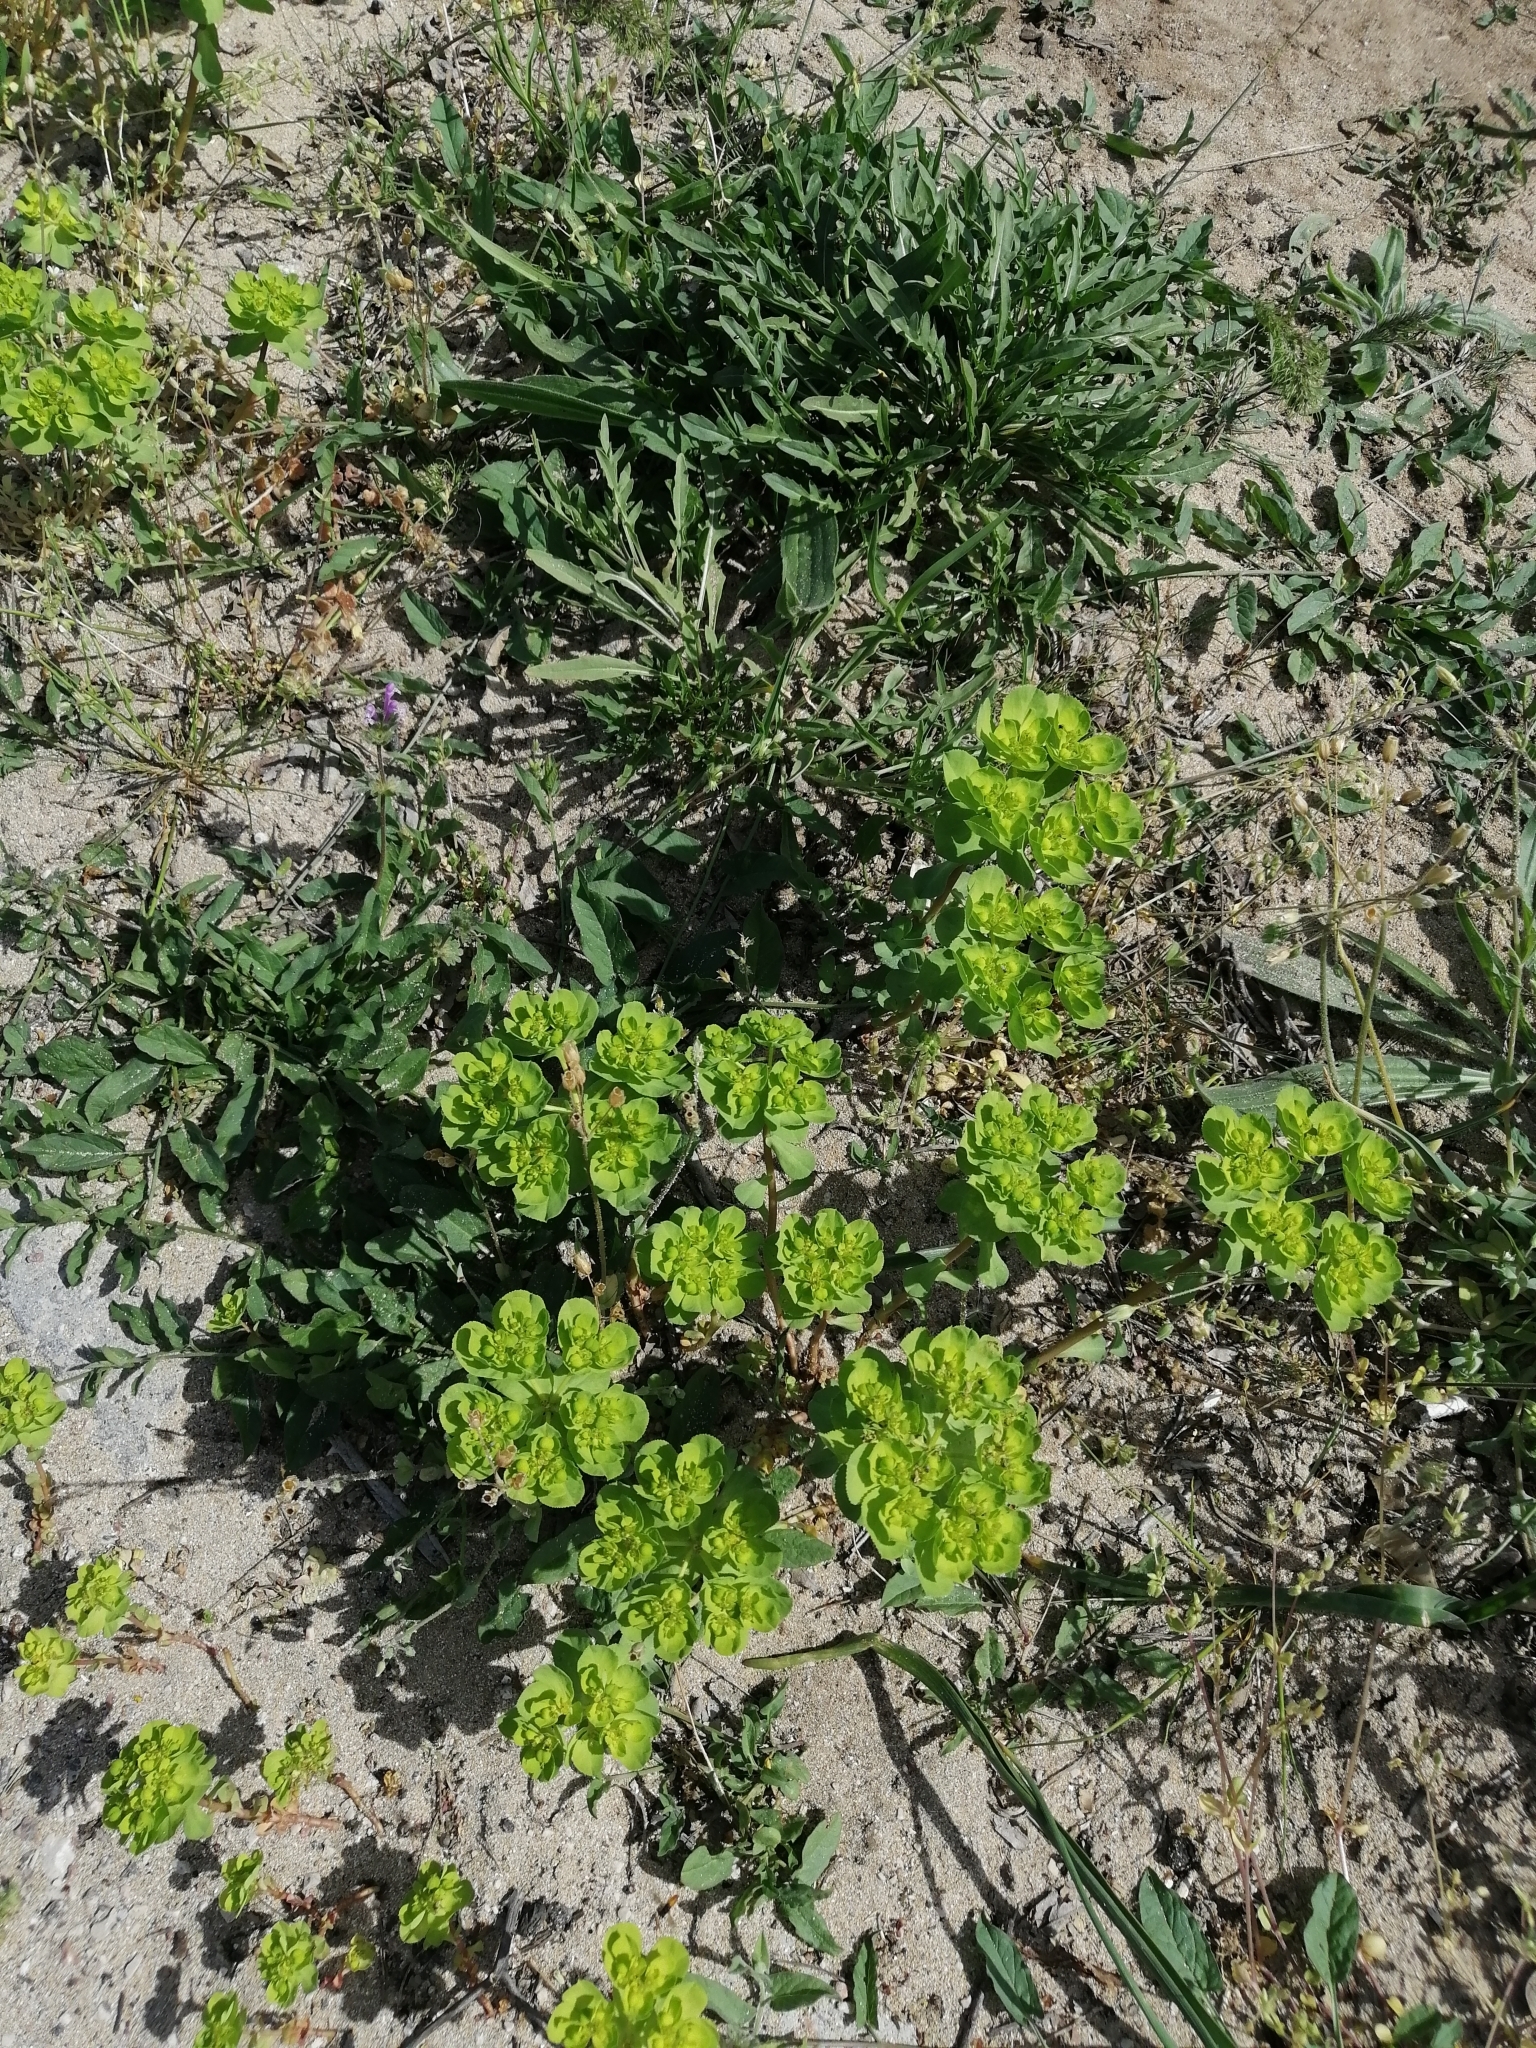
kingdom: Plantae
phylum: Tracheophyta
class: Magnoliopsida
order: Malpighiales
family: Euphorbiaceae
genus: Euphorbia
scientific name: Euphorbia helioscopia
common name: Sun spurge
